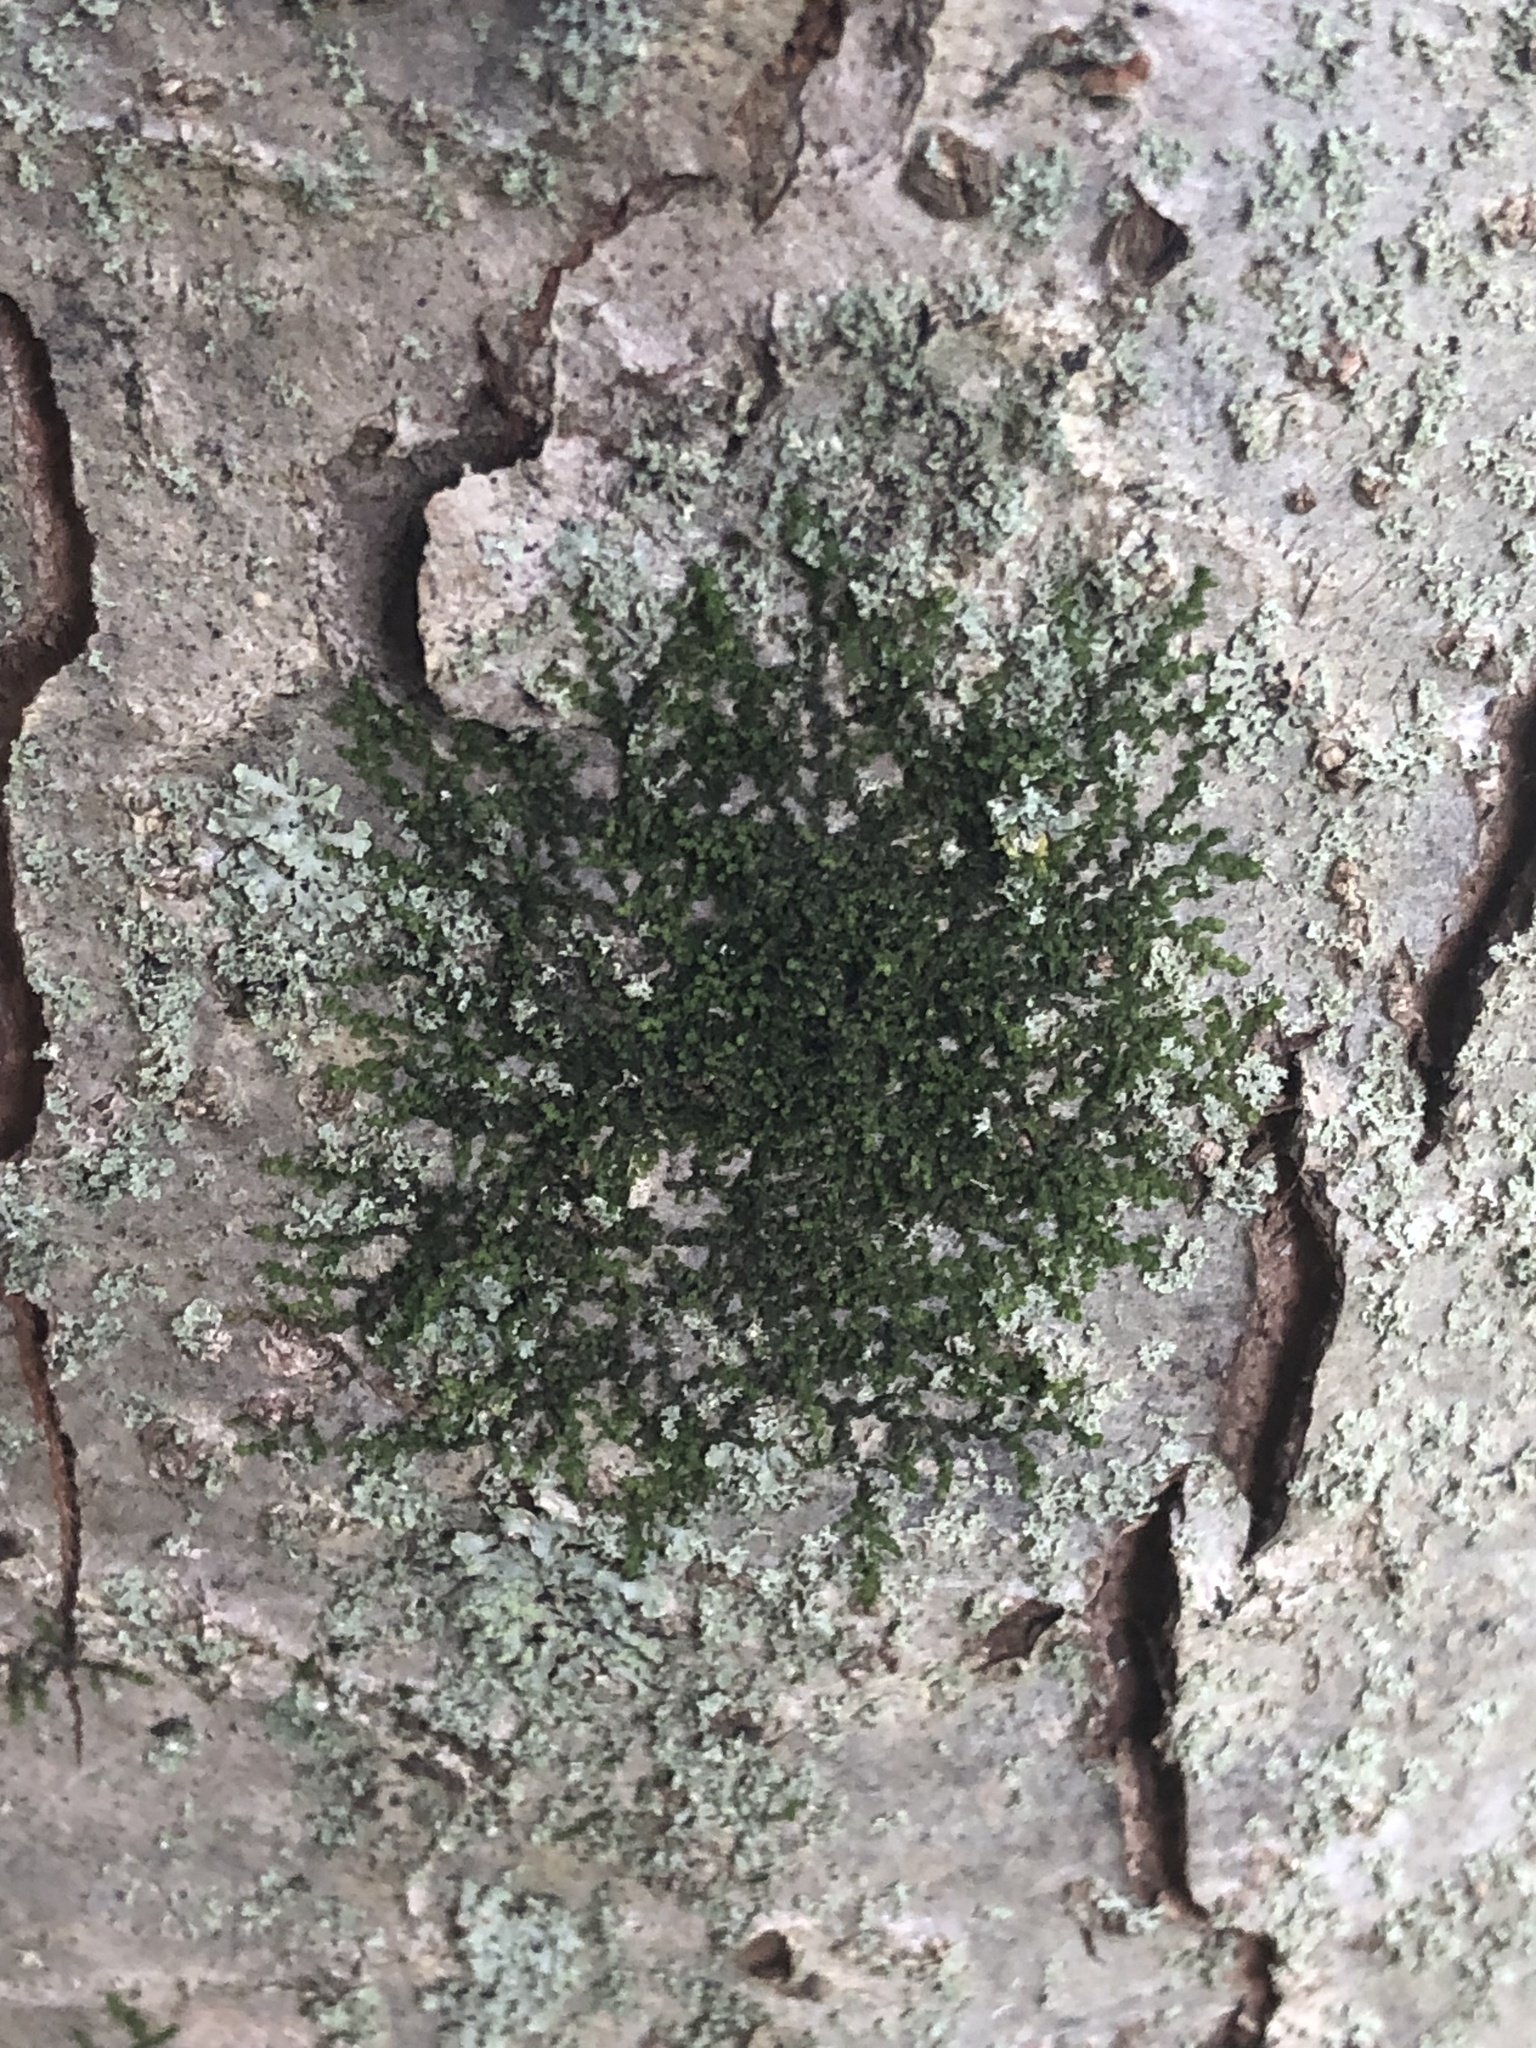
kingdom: Plantae
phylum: Marchantiophyta
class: Jungermanniopsida
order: Porellales
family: Frullaniaceae
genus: Frullania
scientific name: Frullania eboracensis
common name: New york scalewort
